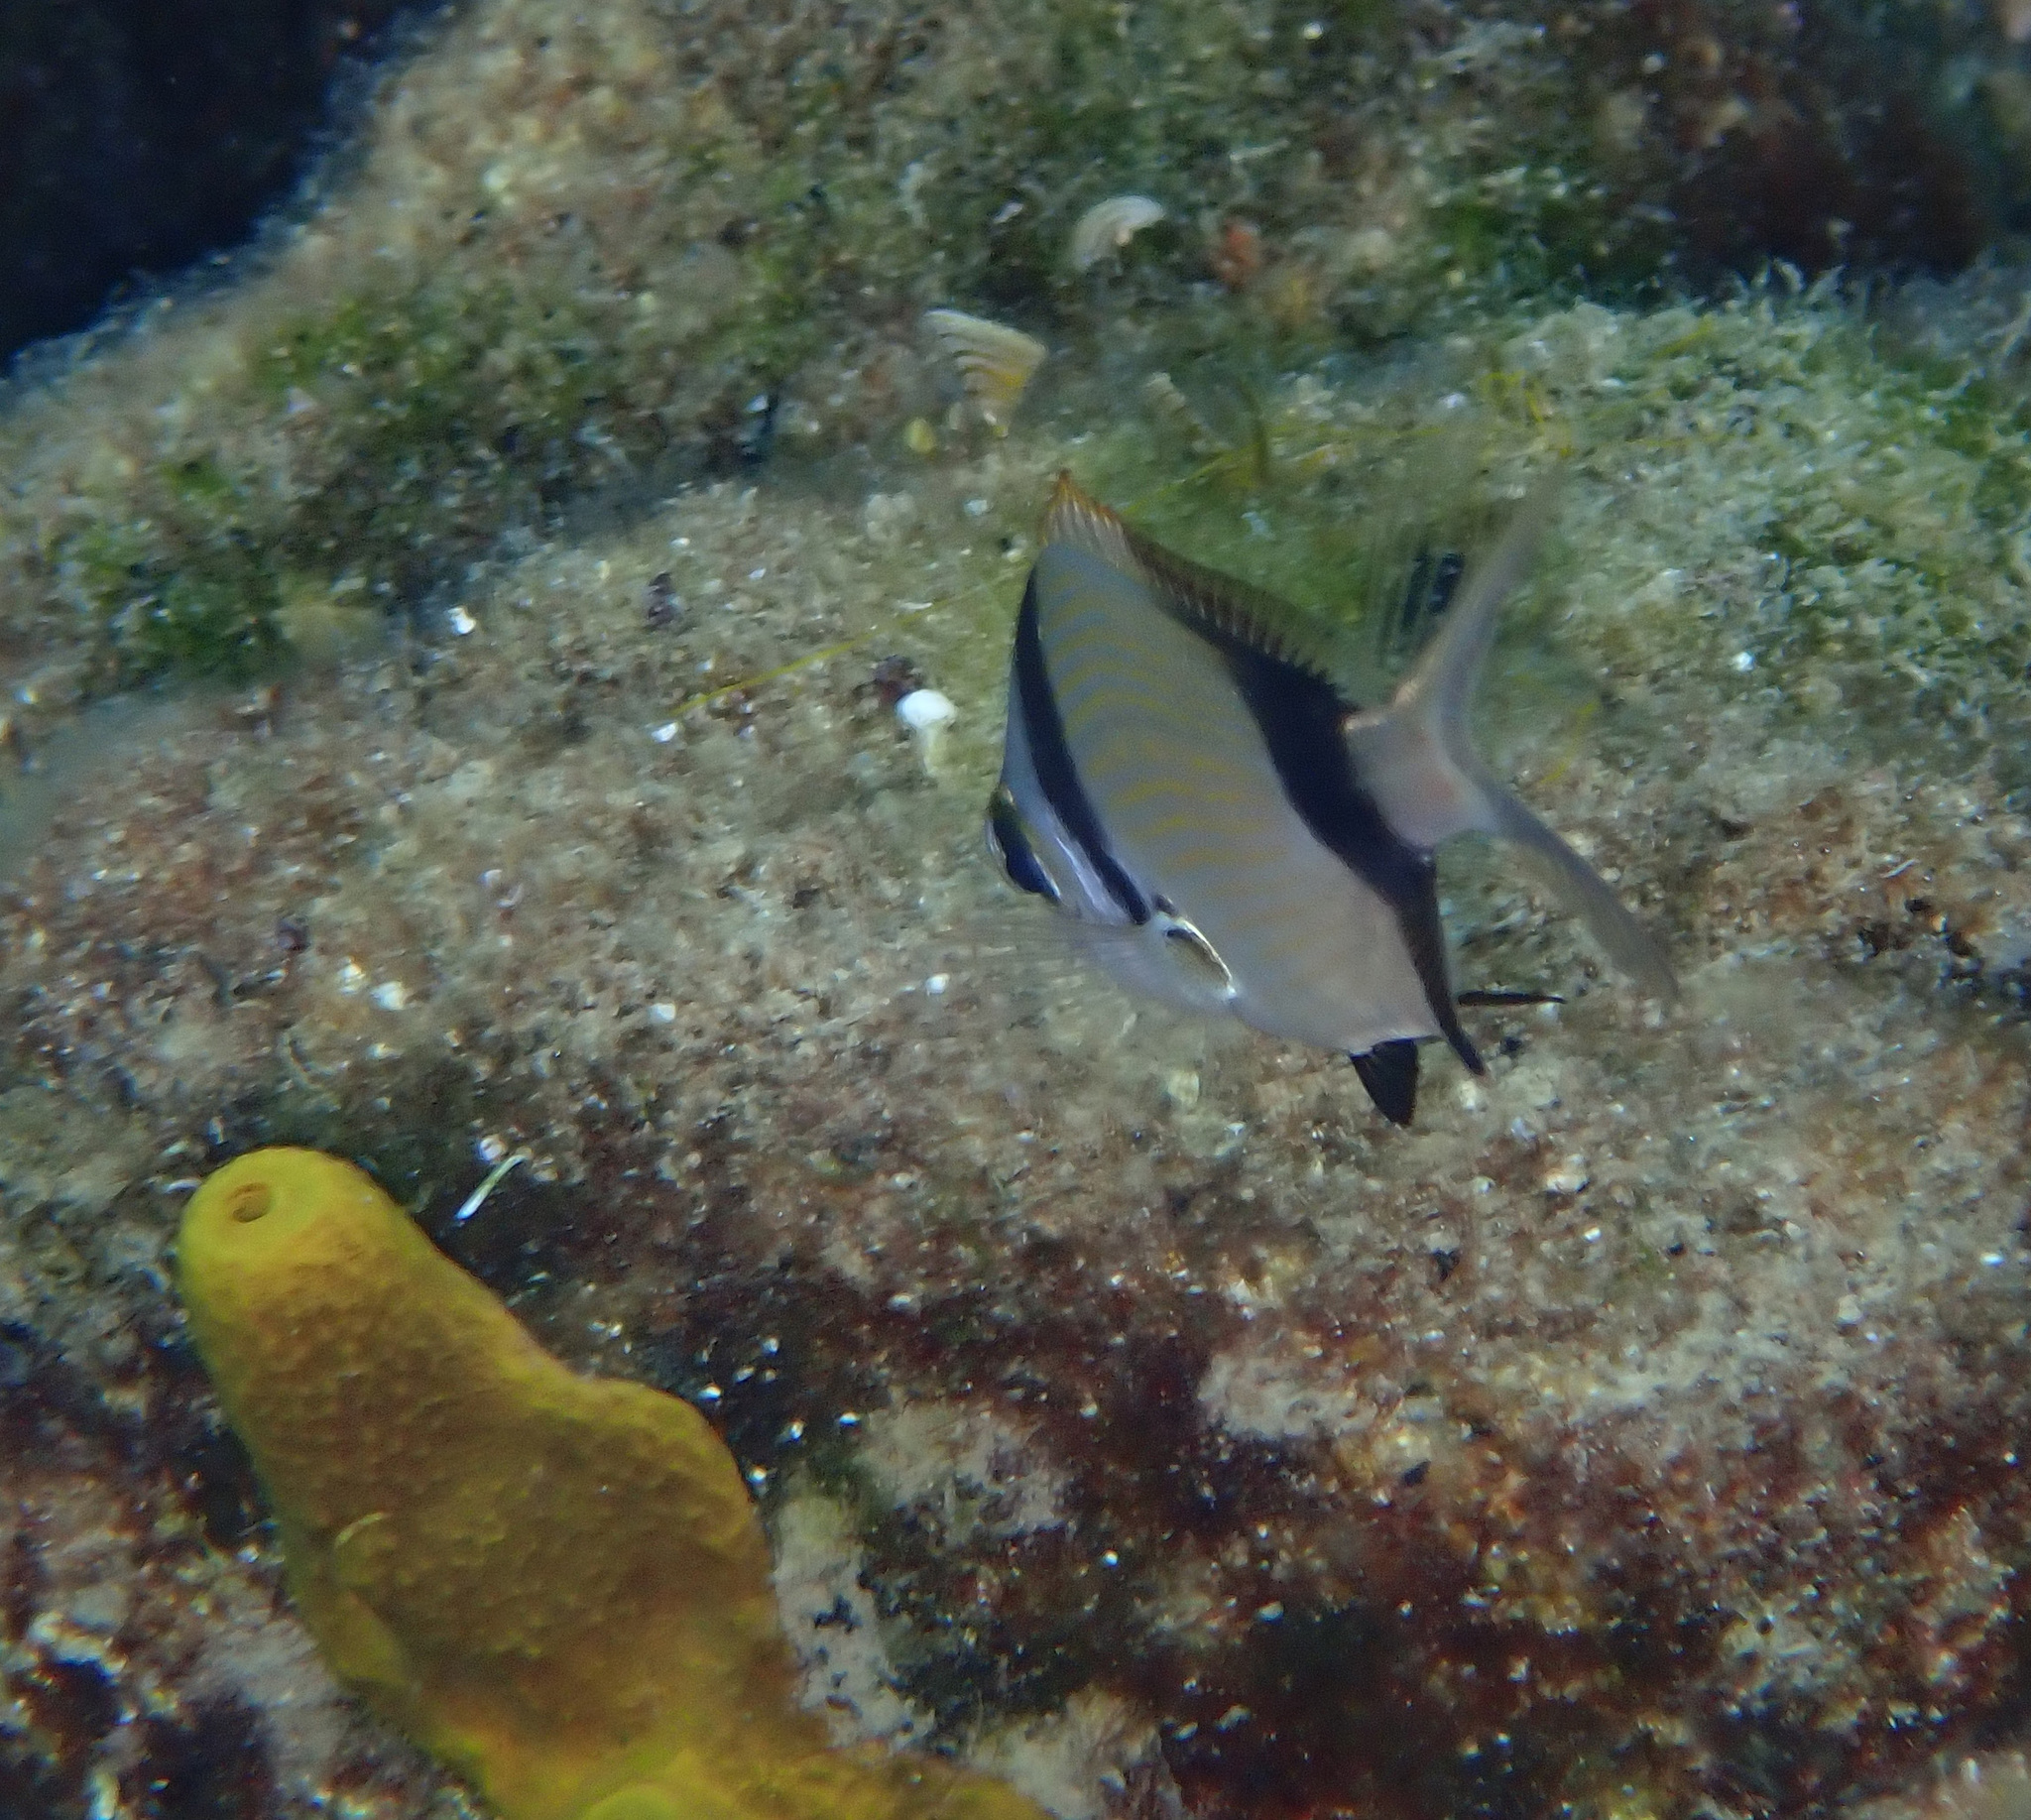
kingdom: Animalia
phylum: Chordata
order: Perciformes
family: Sparidae
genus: Diplodus
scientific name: Diplodus vulgaris
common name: Common two-banded seabream
